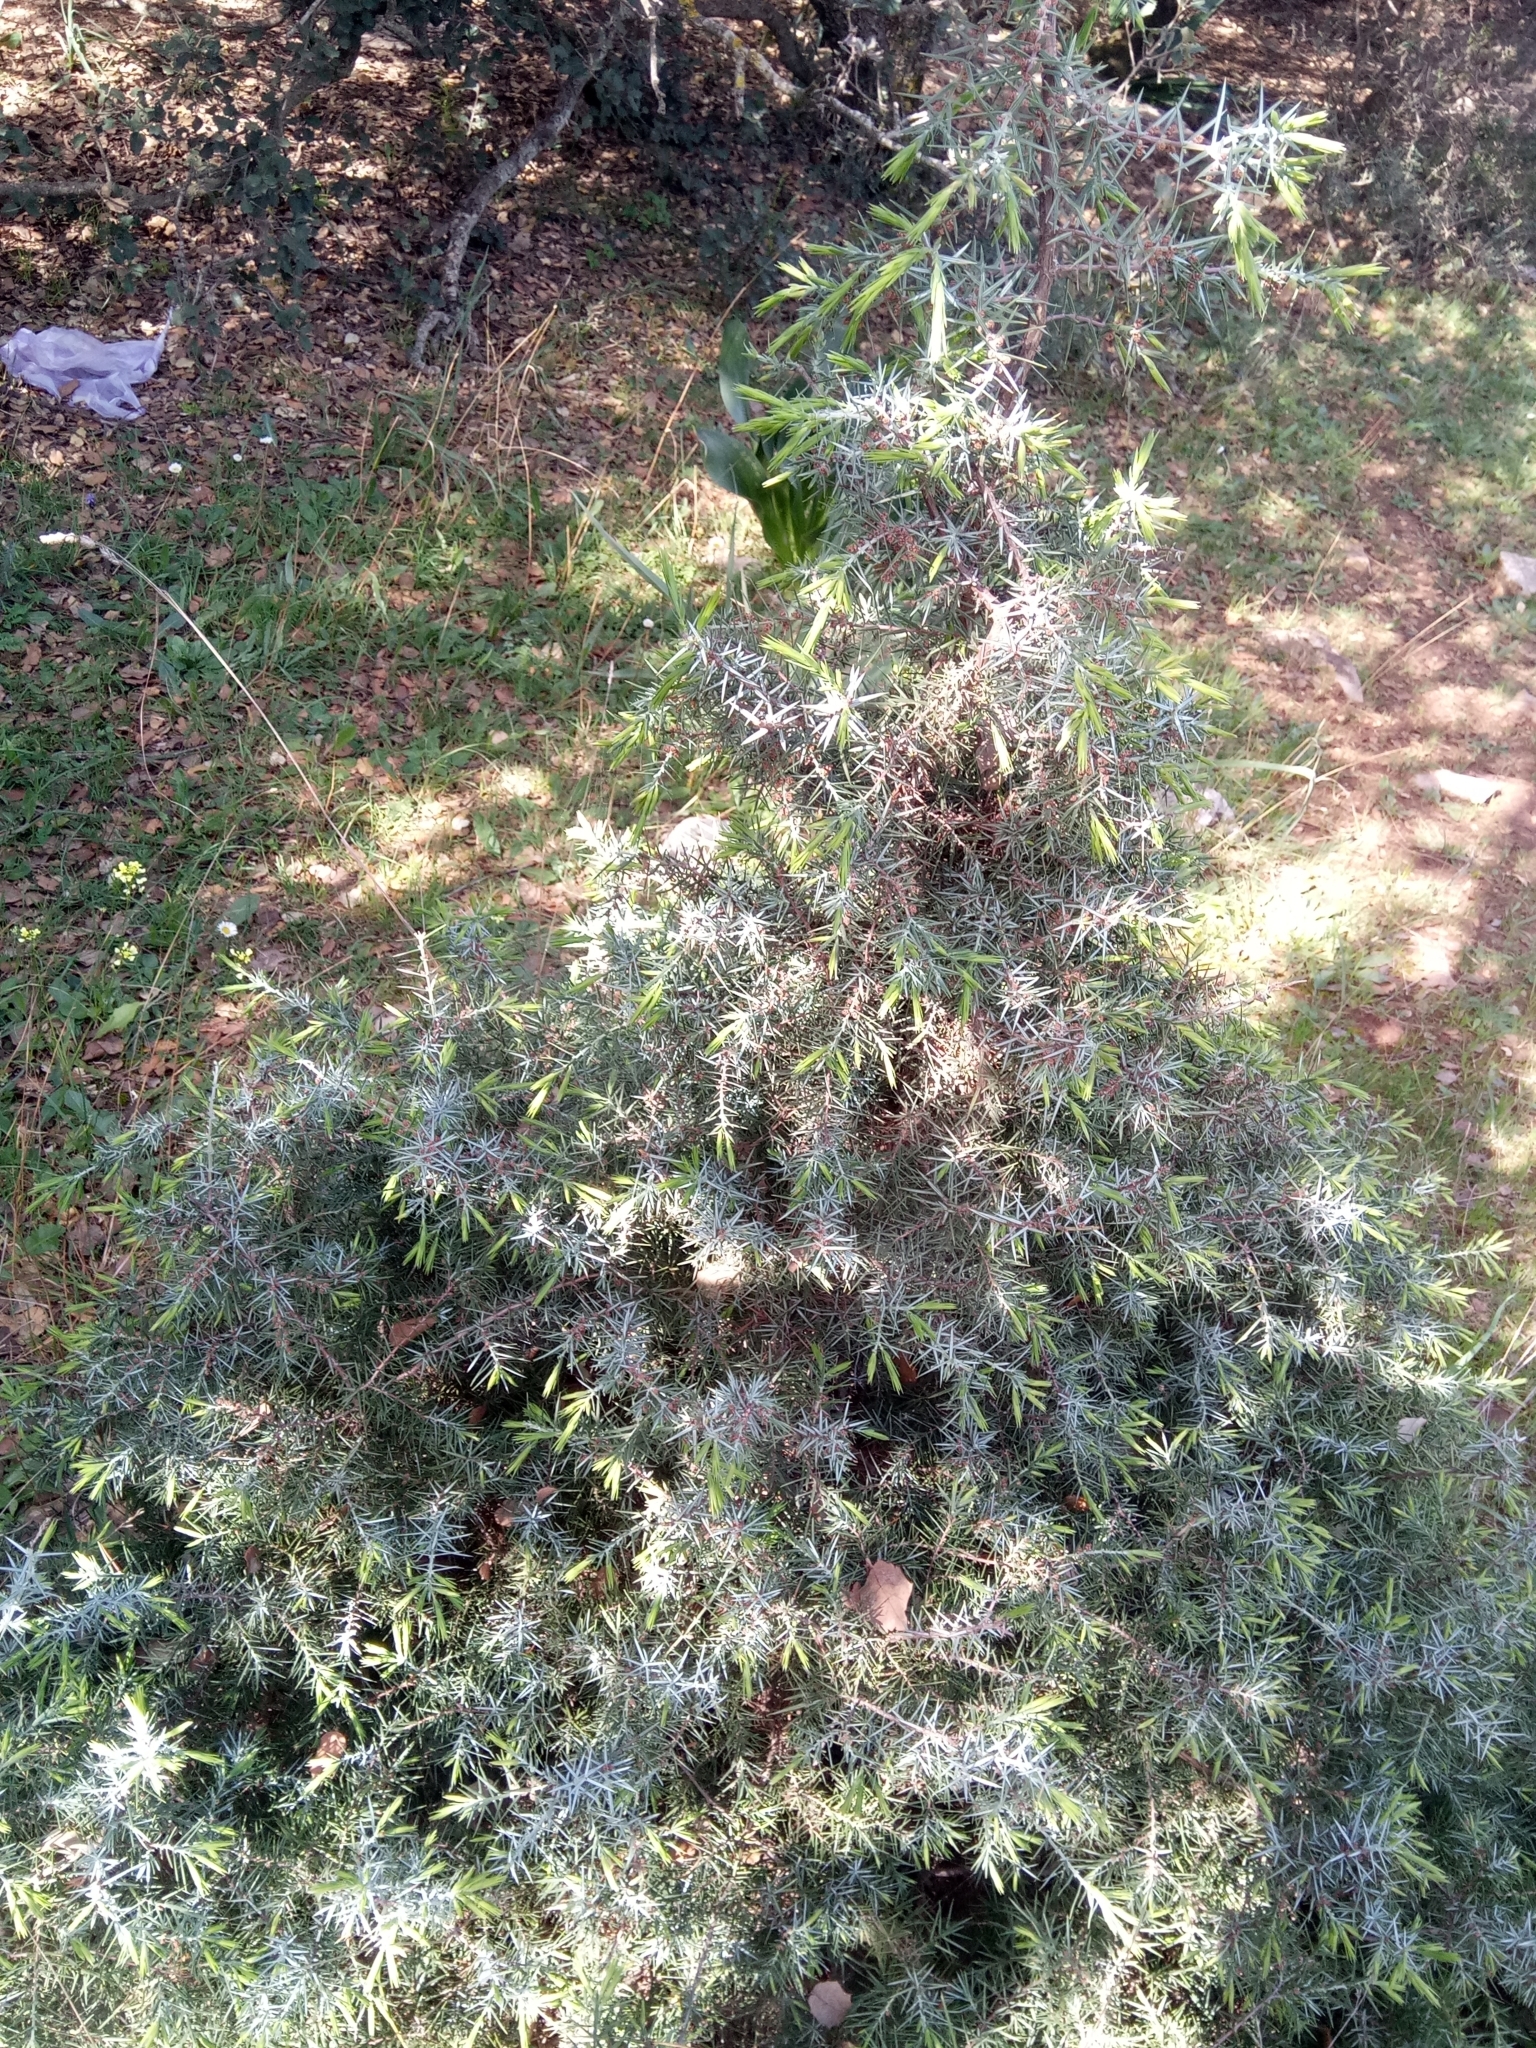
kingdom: Plantae
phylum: Tracheophyta
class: Pinopsida
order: Pinales
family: Cupressaceae
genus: Juniperus
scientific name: Juniperus oxycedrus
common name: Prickly juniper
